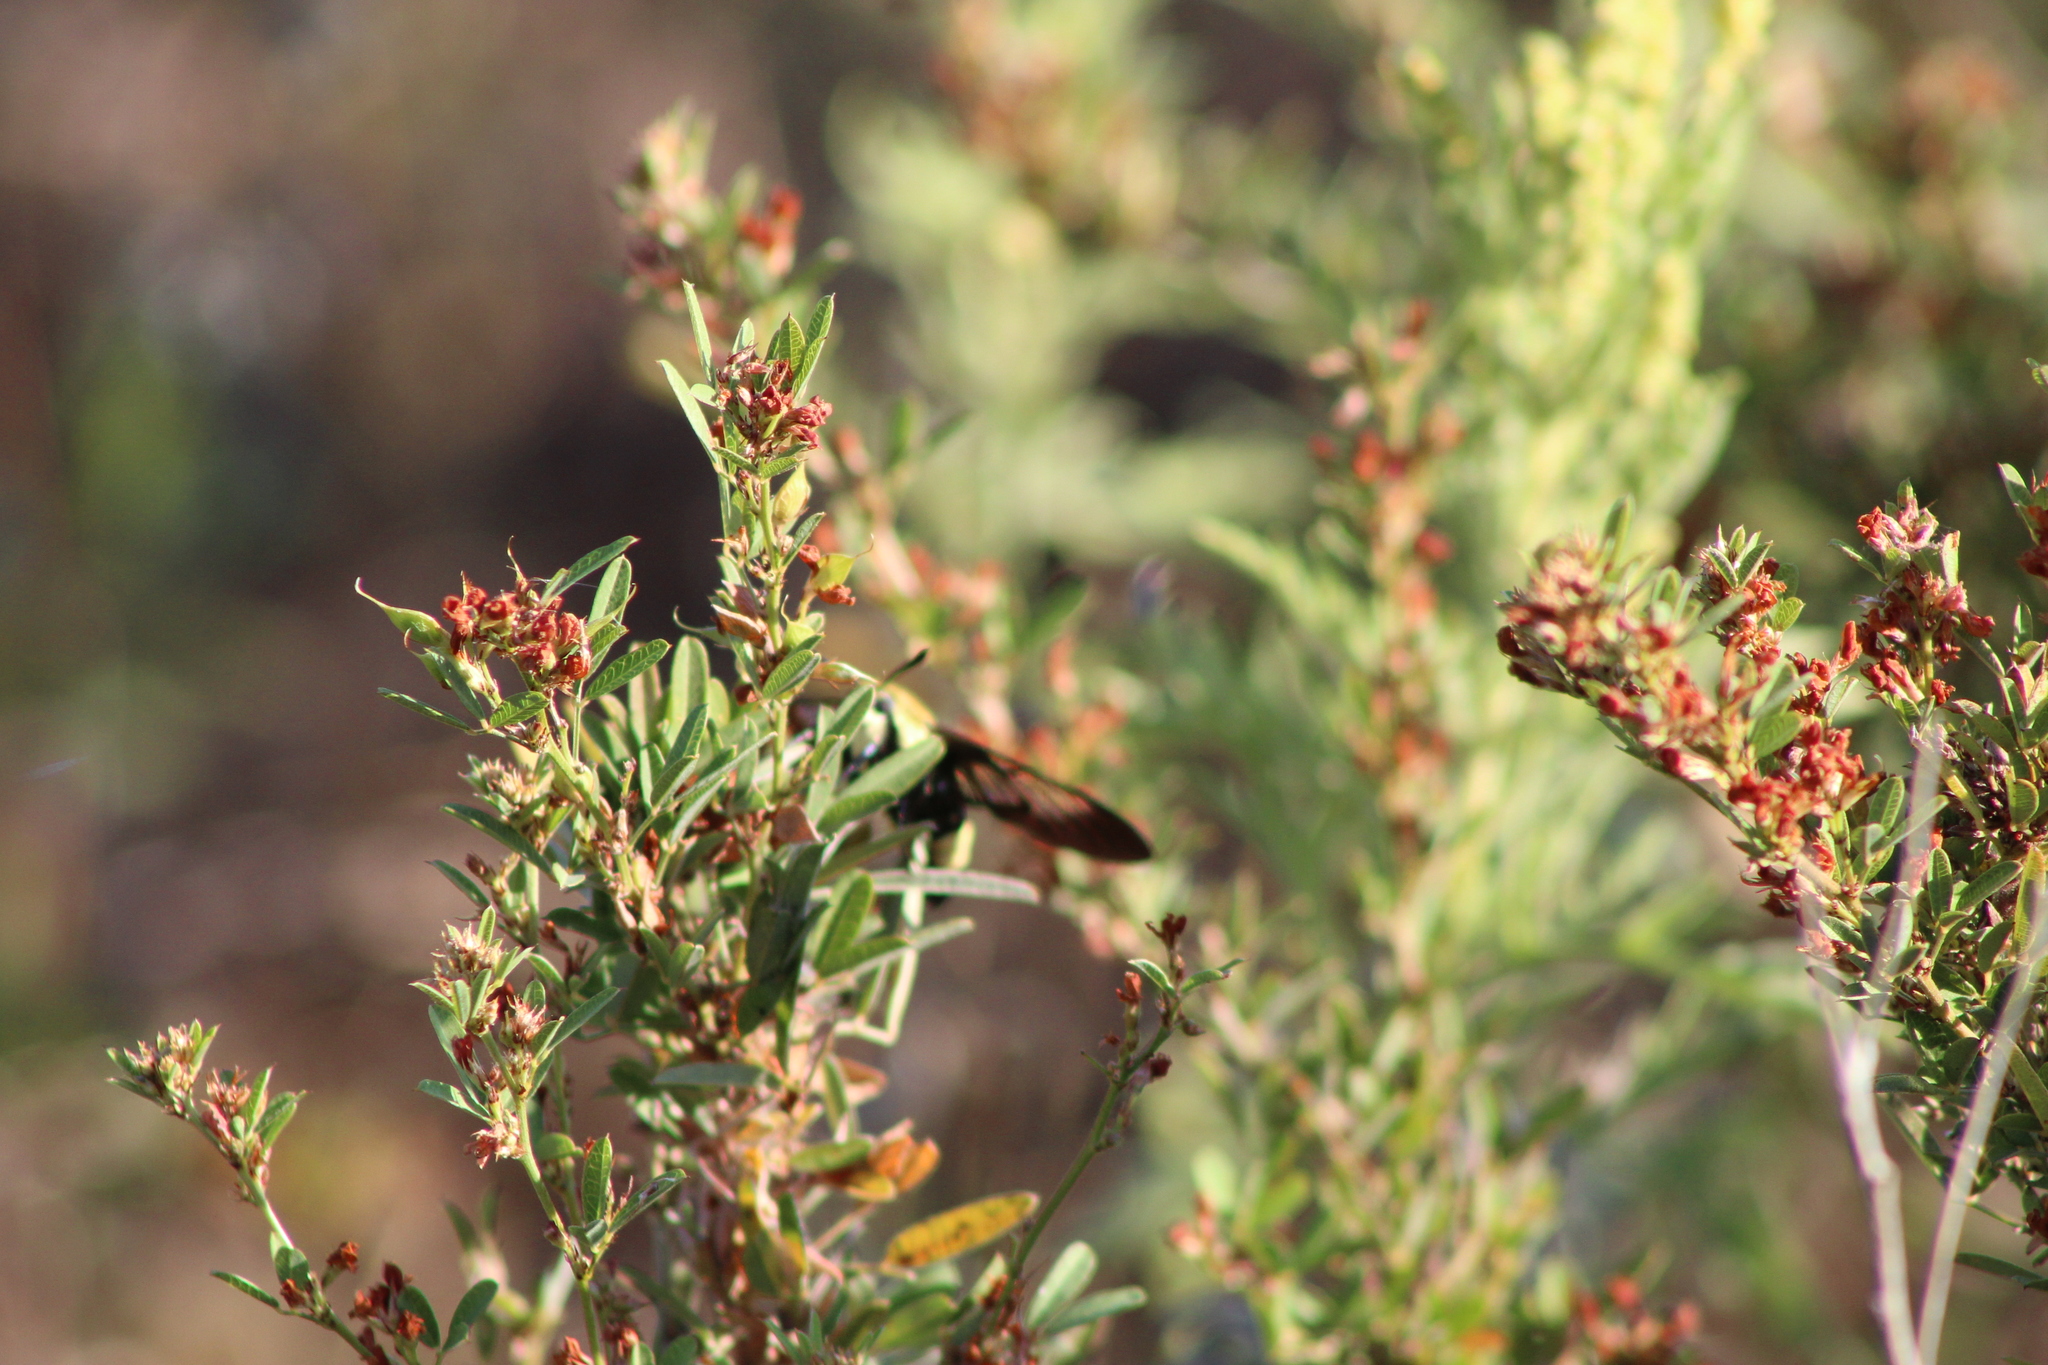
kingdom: Animalia
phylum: Arthropoda
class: Insecta
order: Lepidoptera
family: Sphingidae
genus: Hemaris
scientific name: Hemaris diffinis
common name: Bumblebee moth
